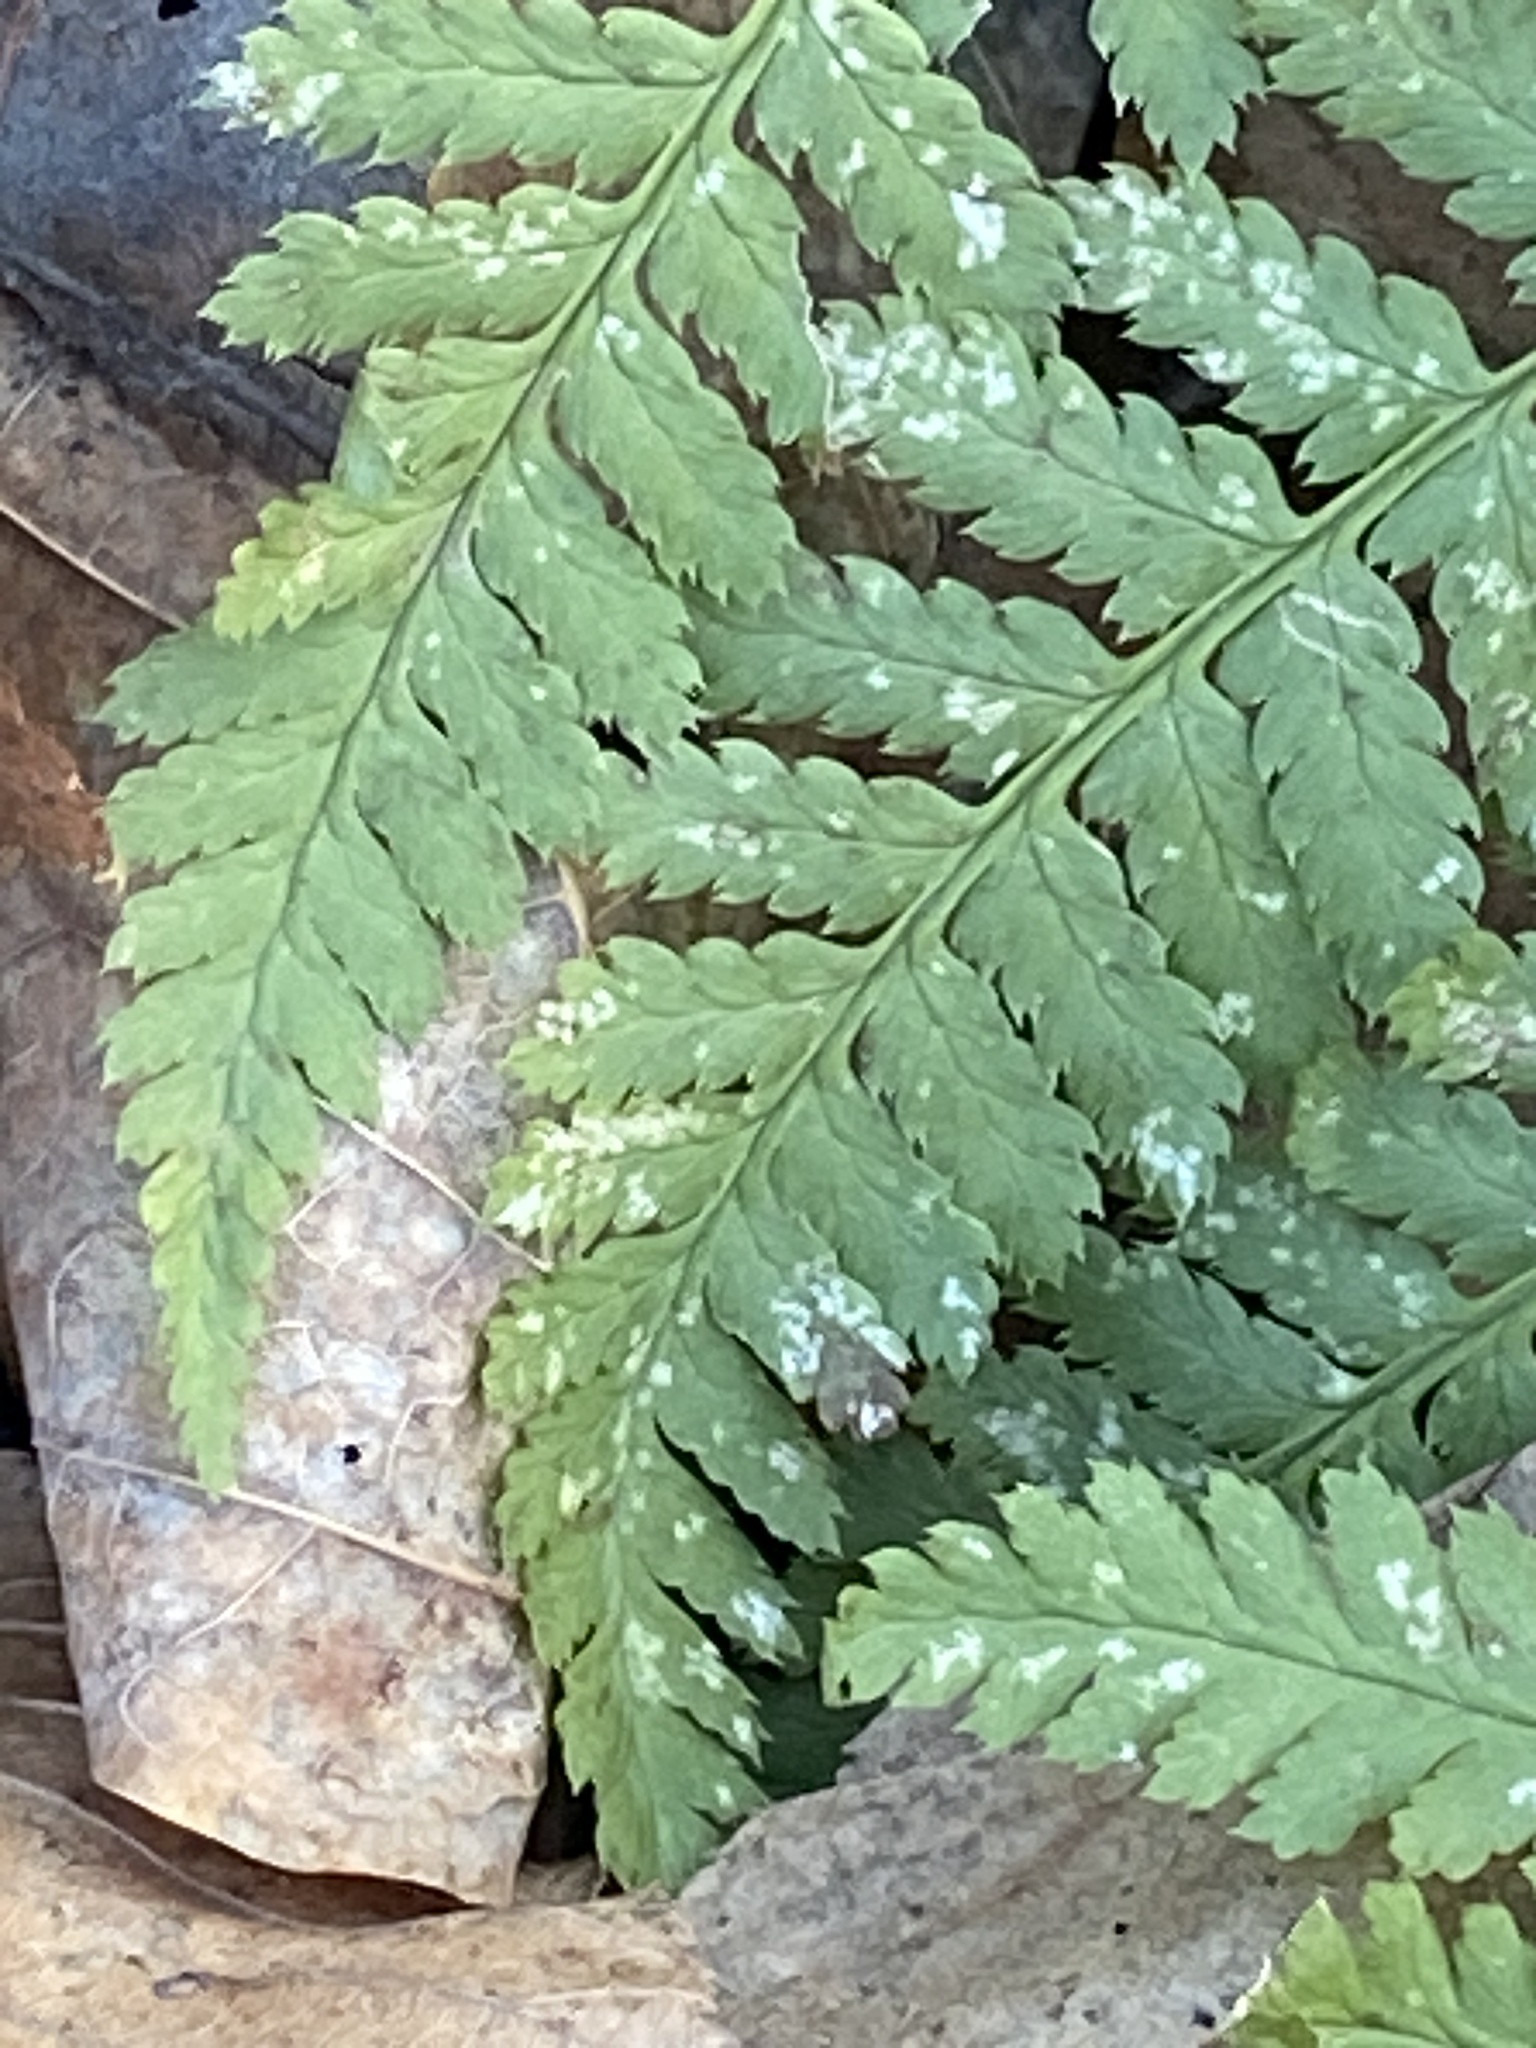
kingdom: Plantae
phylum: Tracheophyta
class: Polypodiopsida
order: Polypodiales
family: Dryopteridaceae
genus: Dryopteris
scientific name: Dryopteris intermedia
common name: Evergreen wood fern
